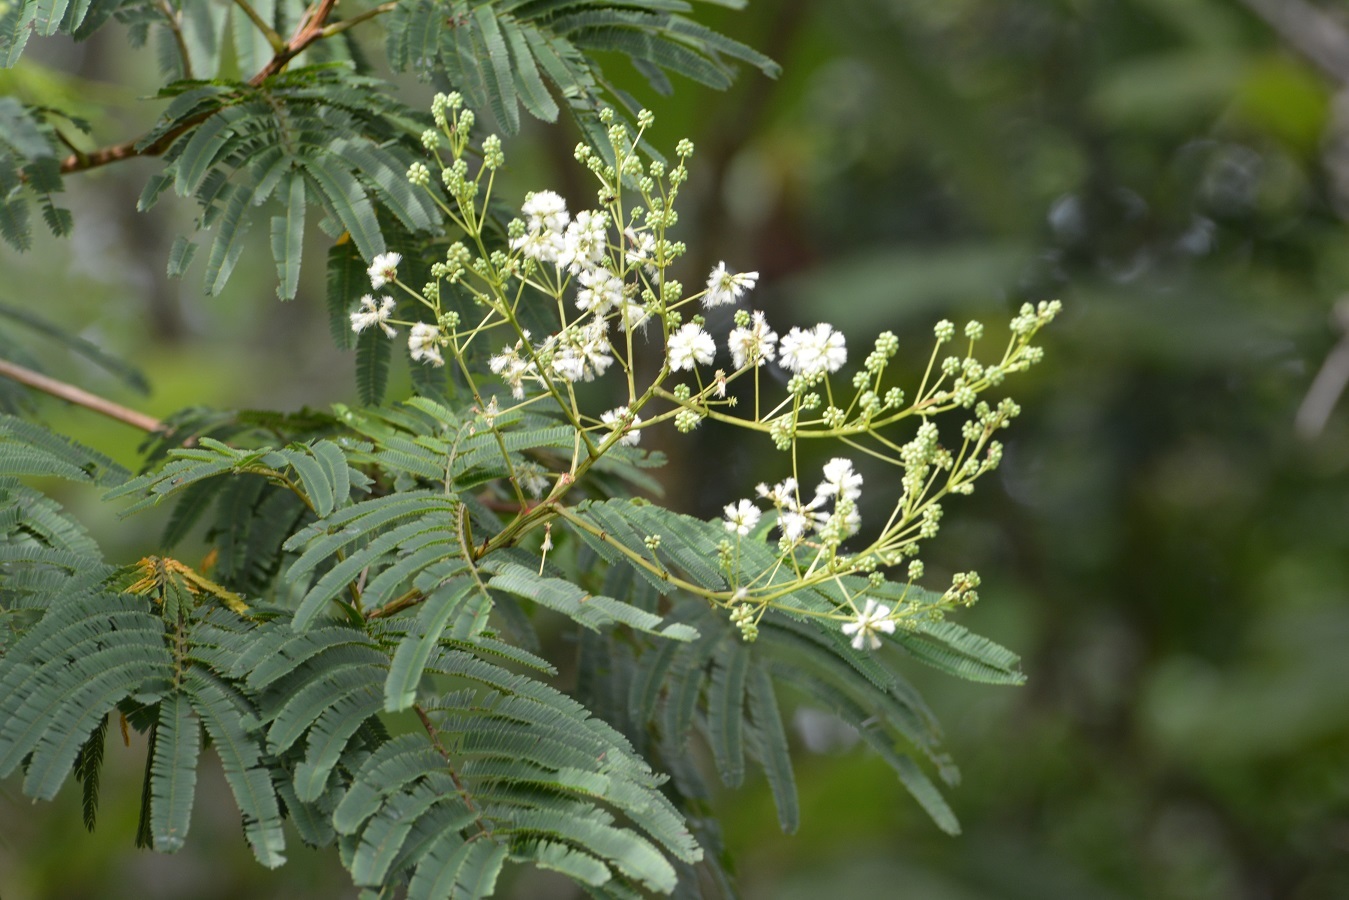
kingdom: Plantae
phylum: Tracheophyta
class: Magnoliopsida
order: Fabales
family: Fabaceae
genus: Leucaena
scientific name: Leucaena diversifolia
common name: Red leucaena
